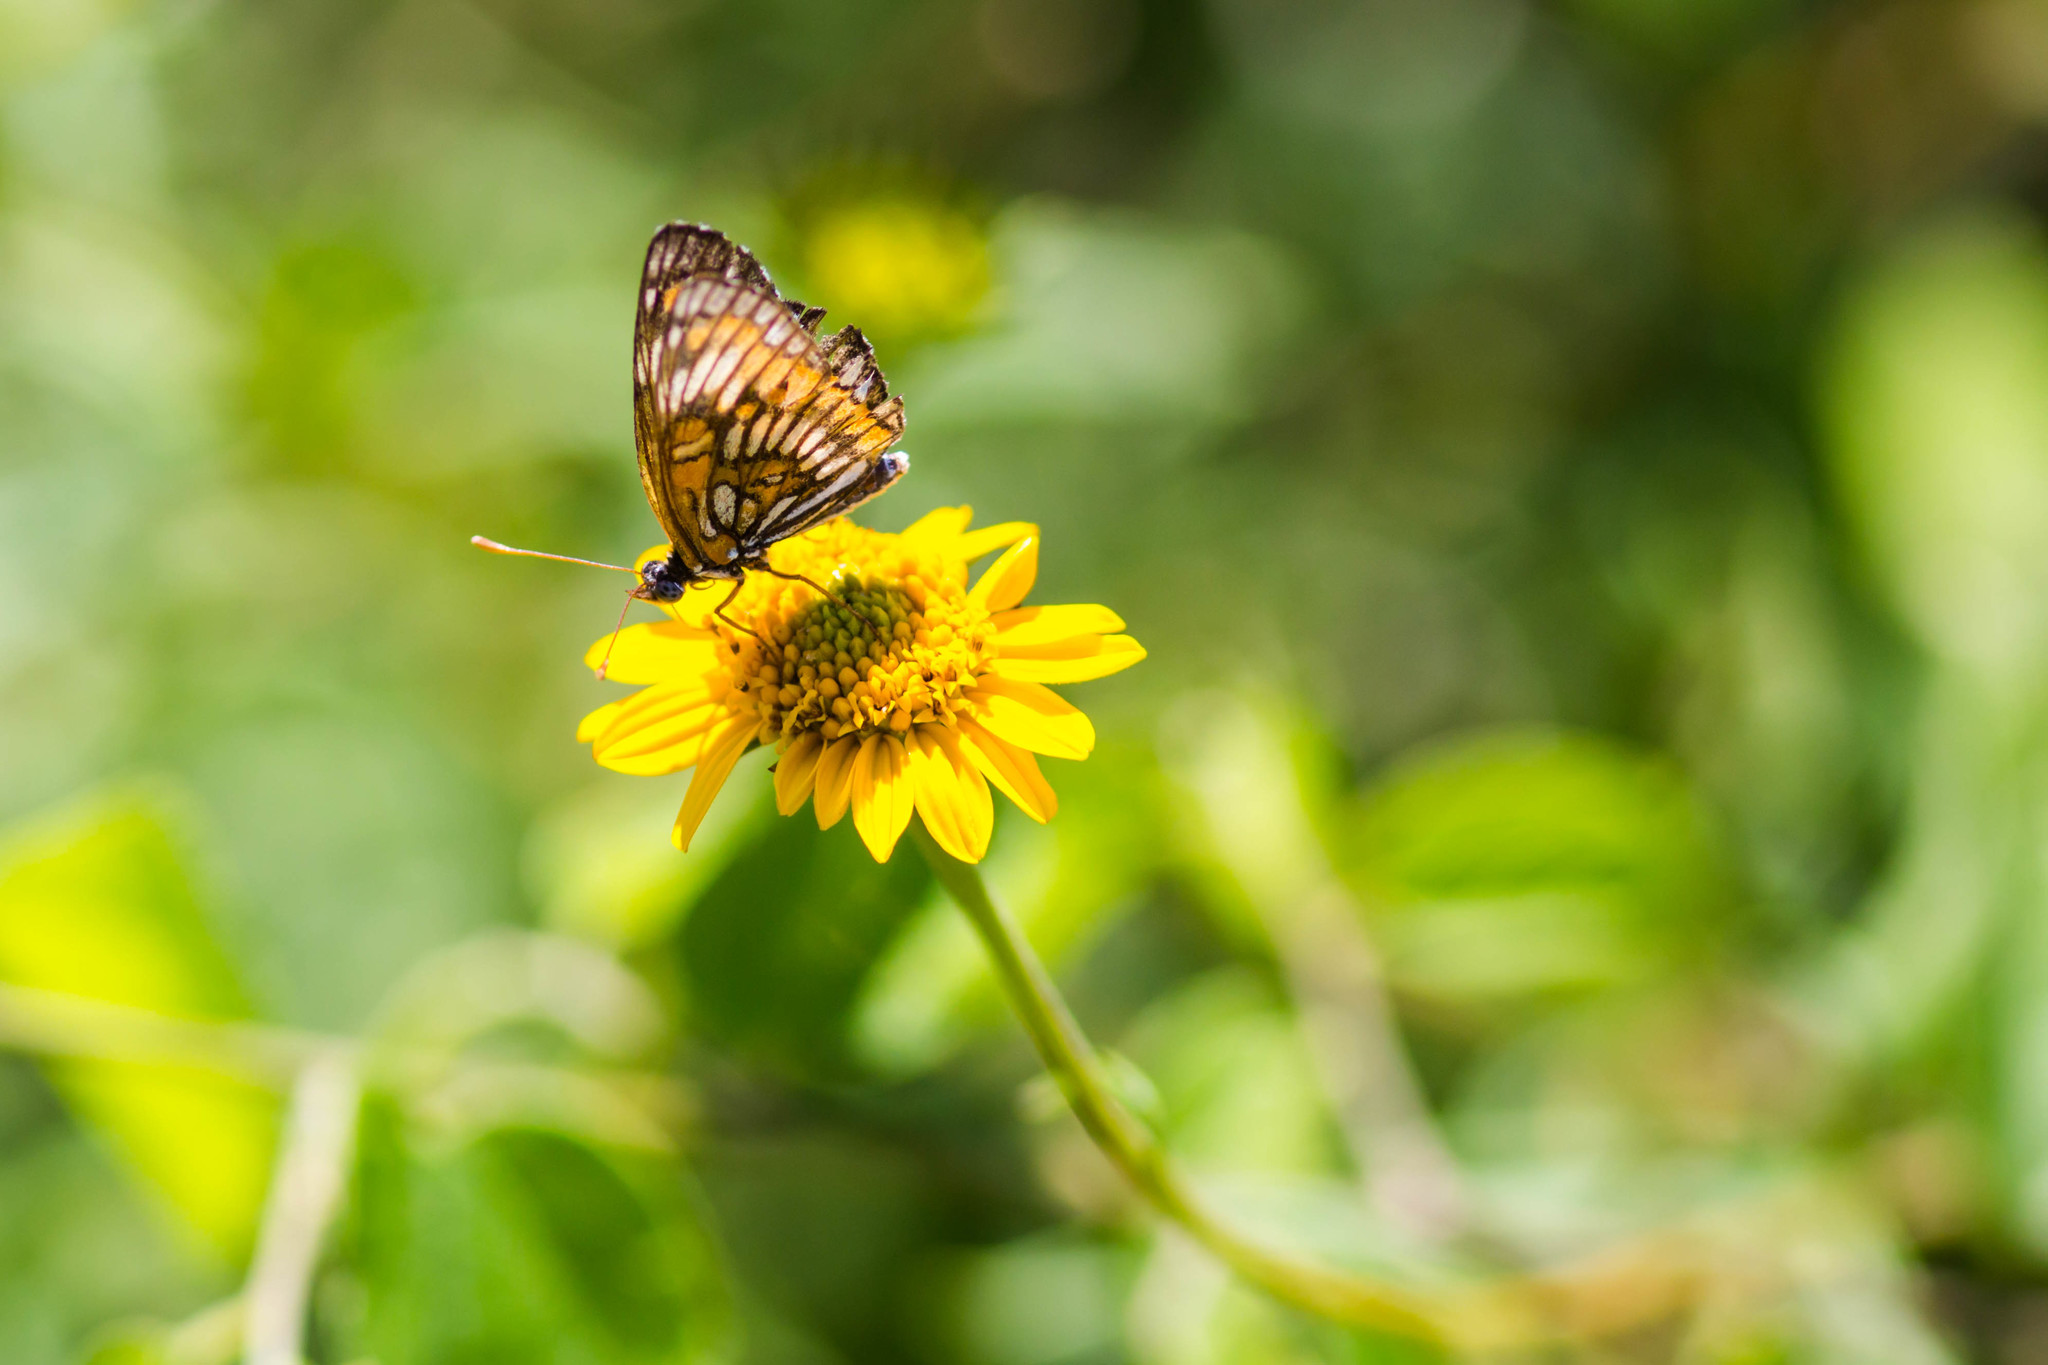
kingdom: Animalia
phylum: Arthropoda
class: Insecta
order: Lepidoptera
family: Nymphalidae
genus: Thessalia
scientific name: Thessalia theona
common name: Nymphalid moth
